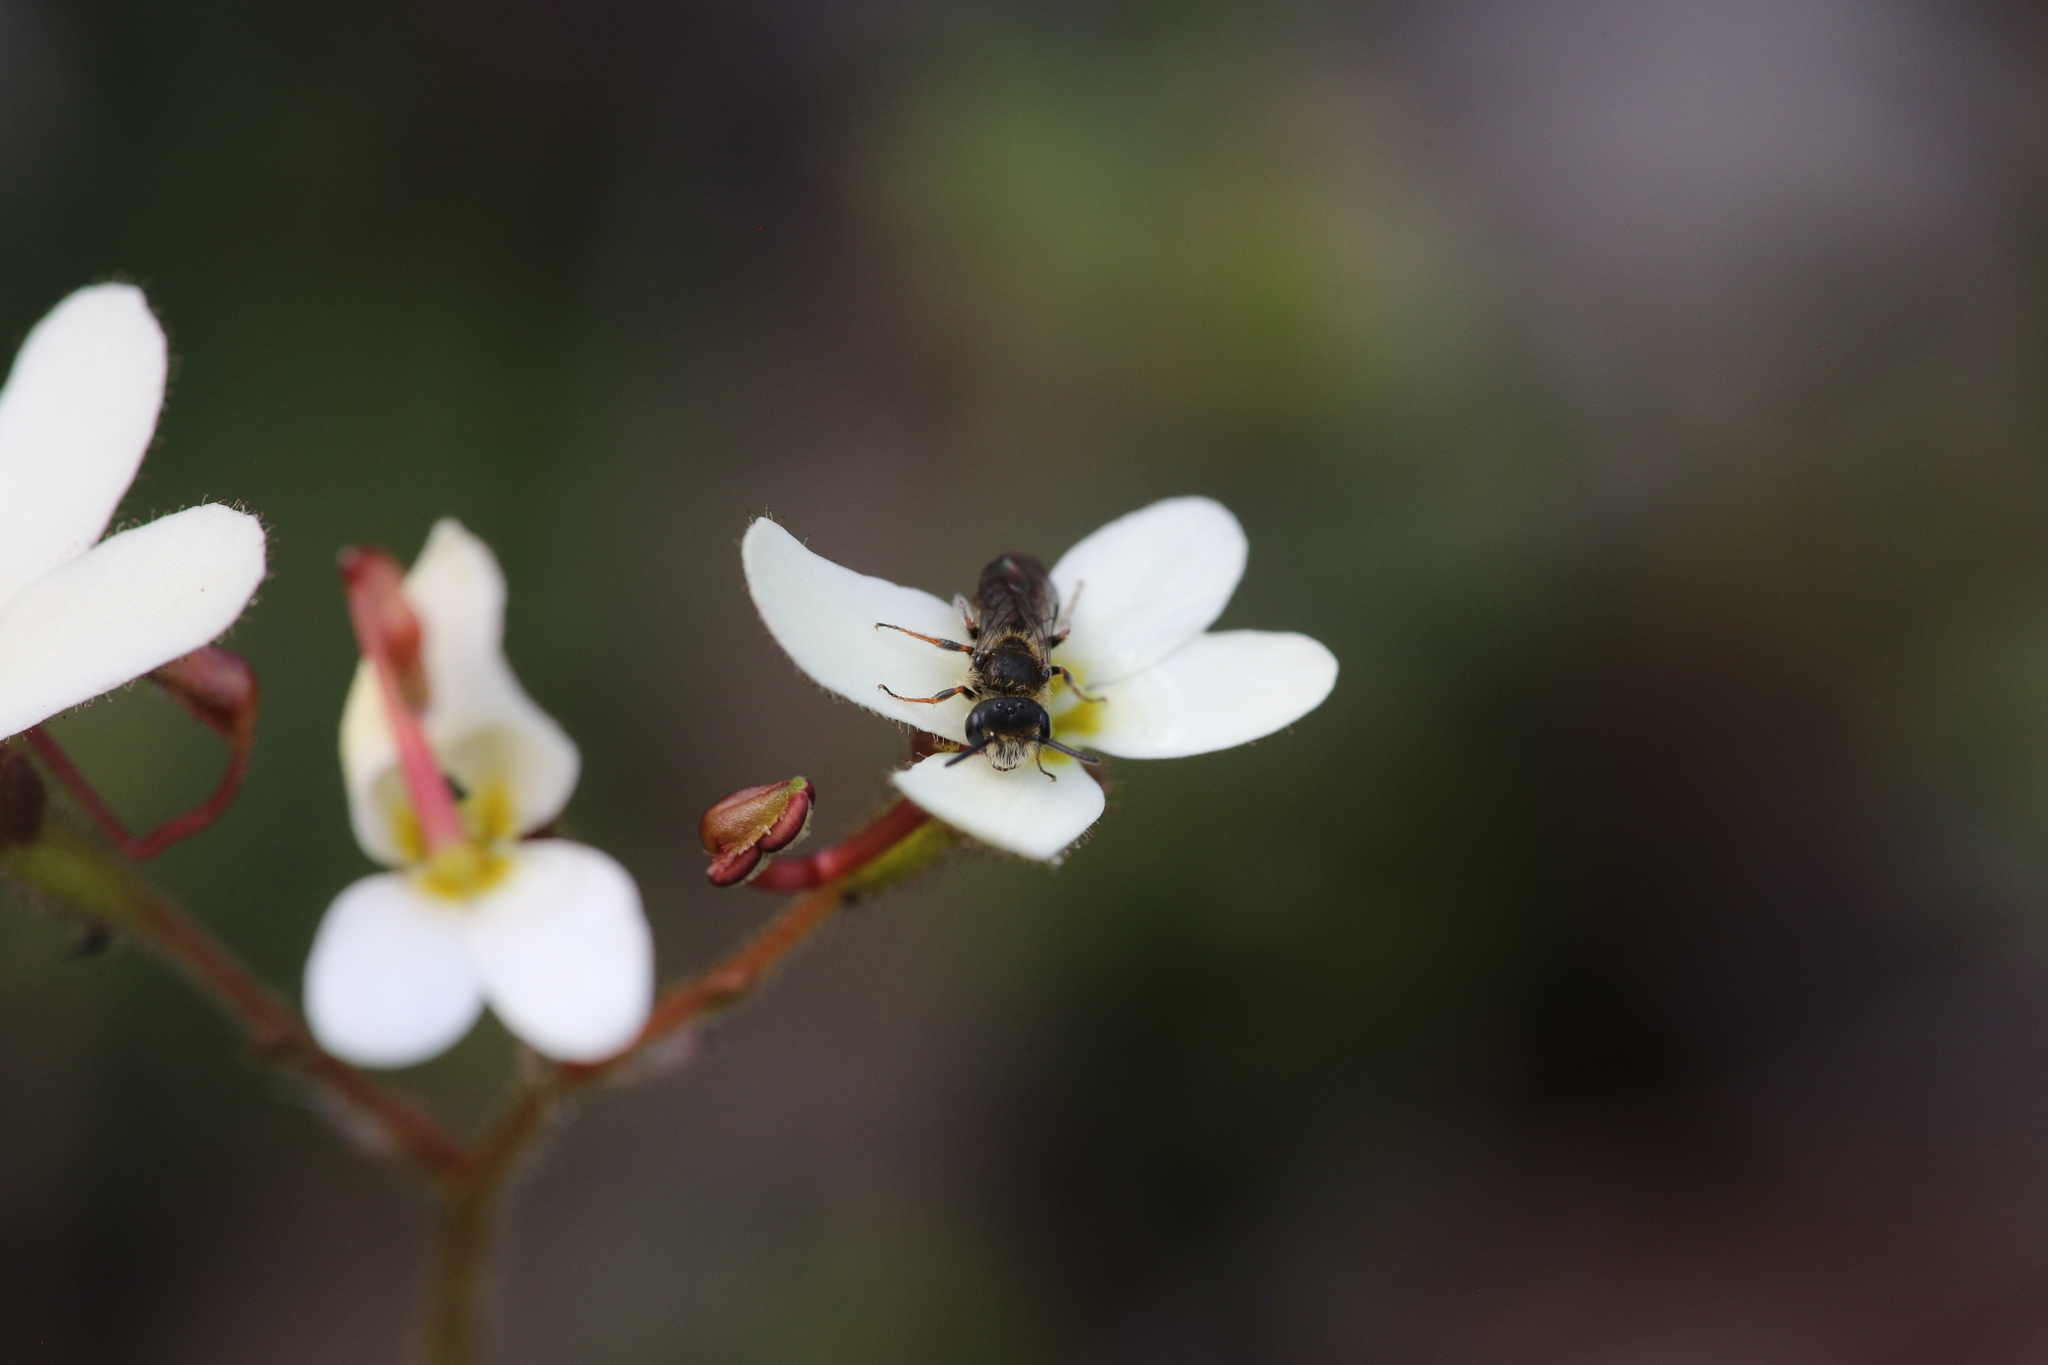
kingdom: Plantae
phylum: Tracheophyta
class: Magnoliopsida
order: Asterales
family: Stylidiaceae
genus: Stylidium
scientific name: Stylidium hispidum
